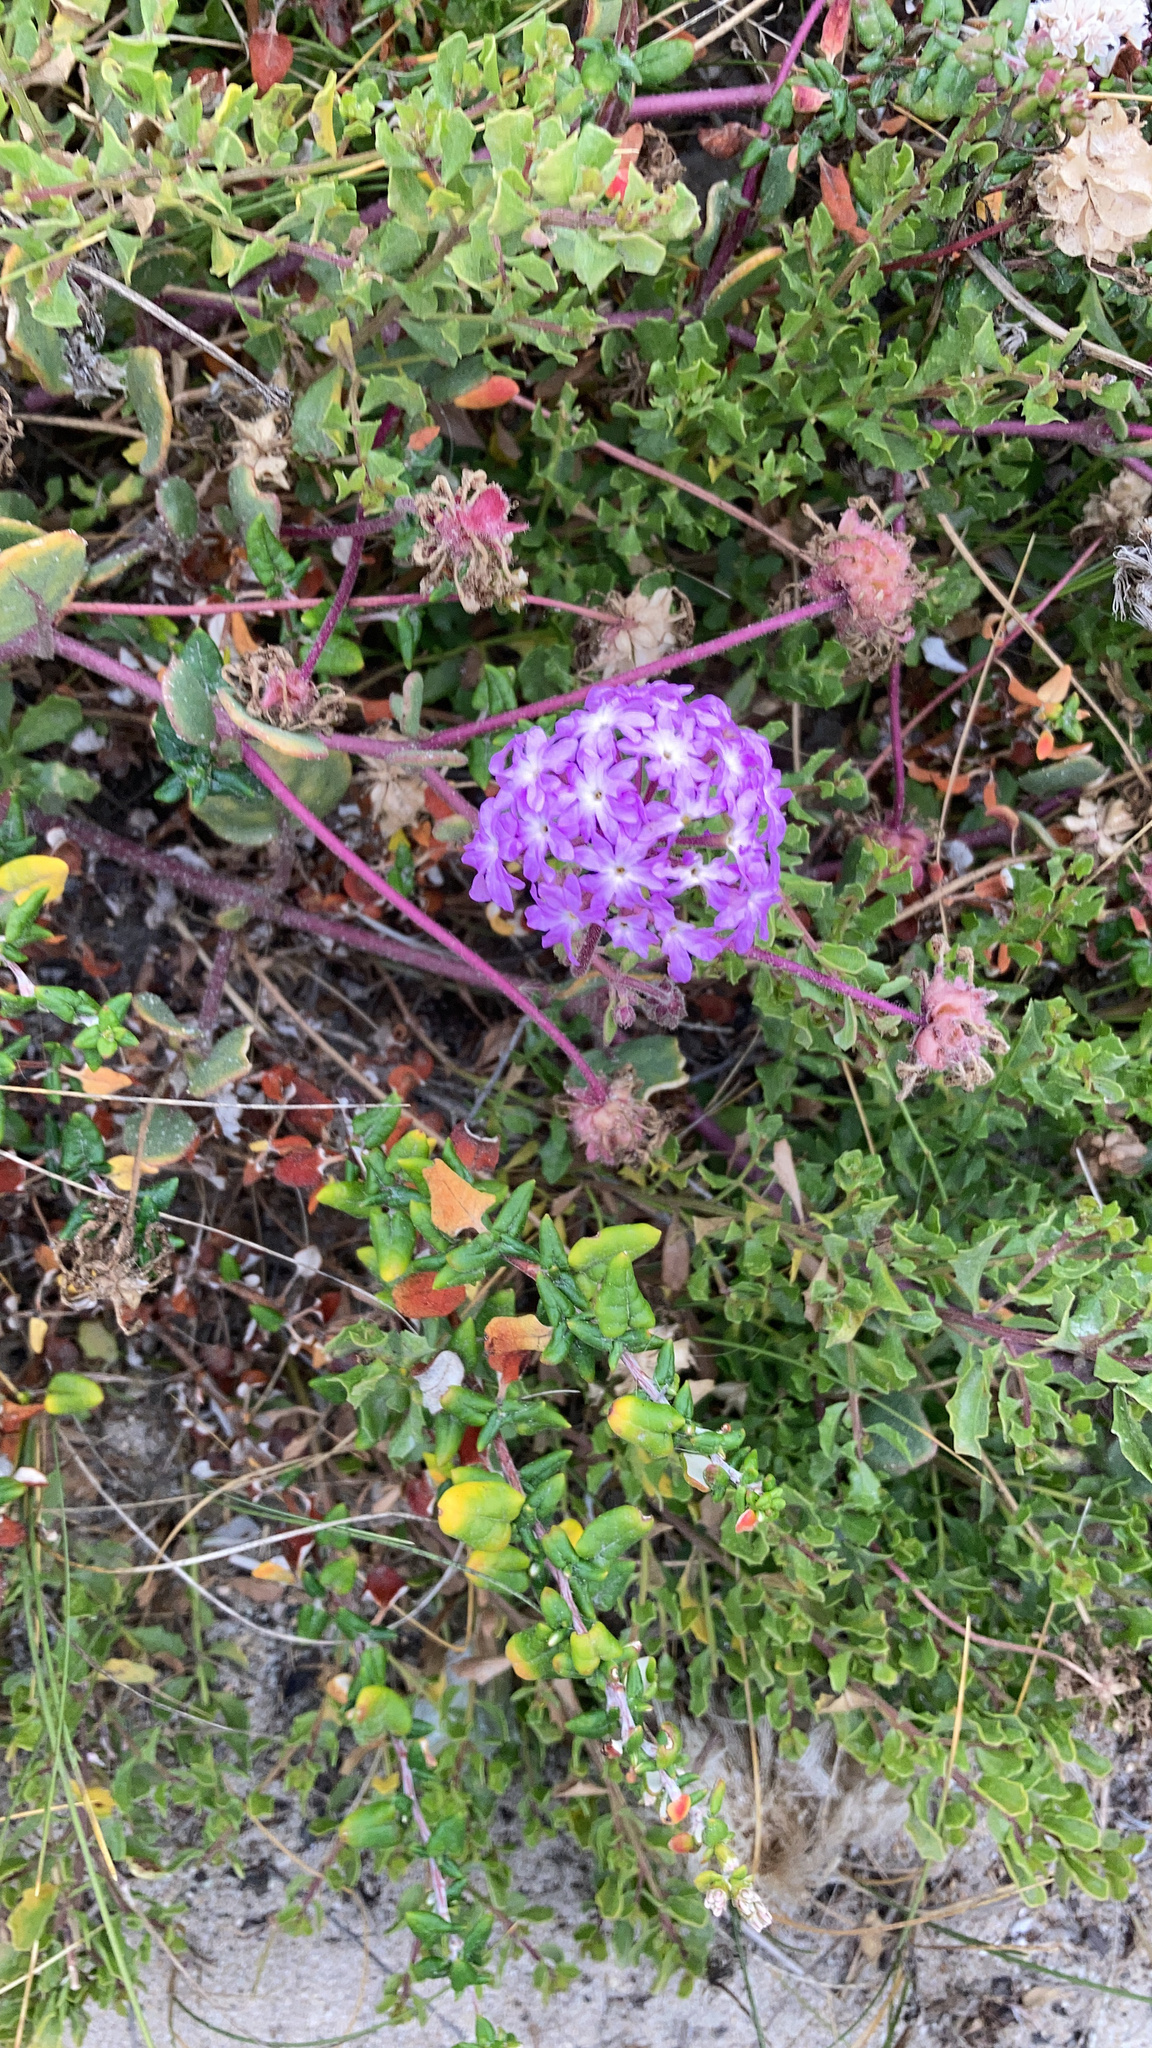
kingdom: Plantae
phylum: Tracheophyta
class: Magnoliopsida
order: Caryophyllales
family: Nyctaginaceae
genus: Abronia
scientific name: Abronia umbellata
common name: Sand-verbena
